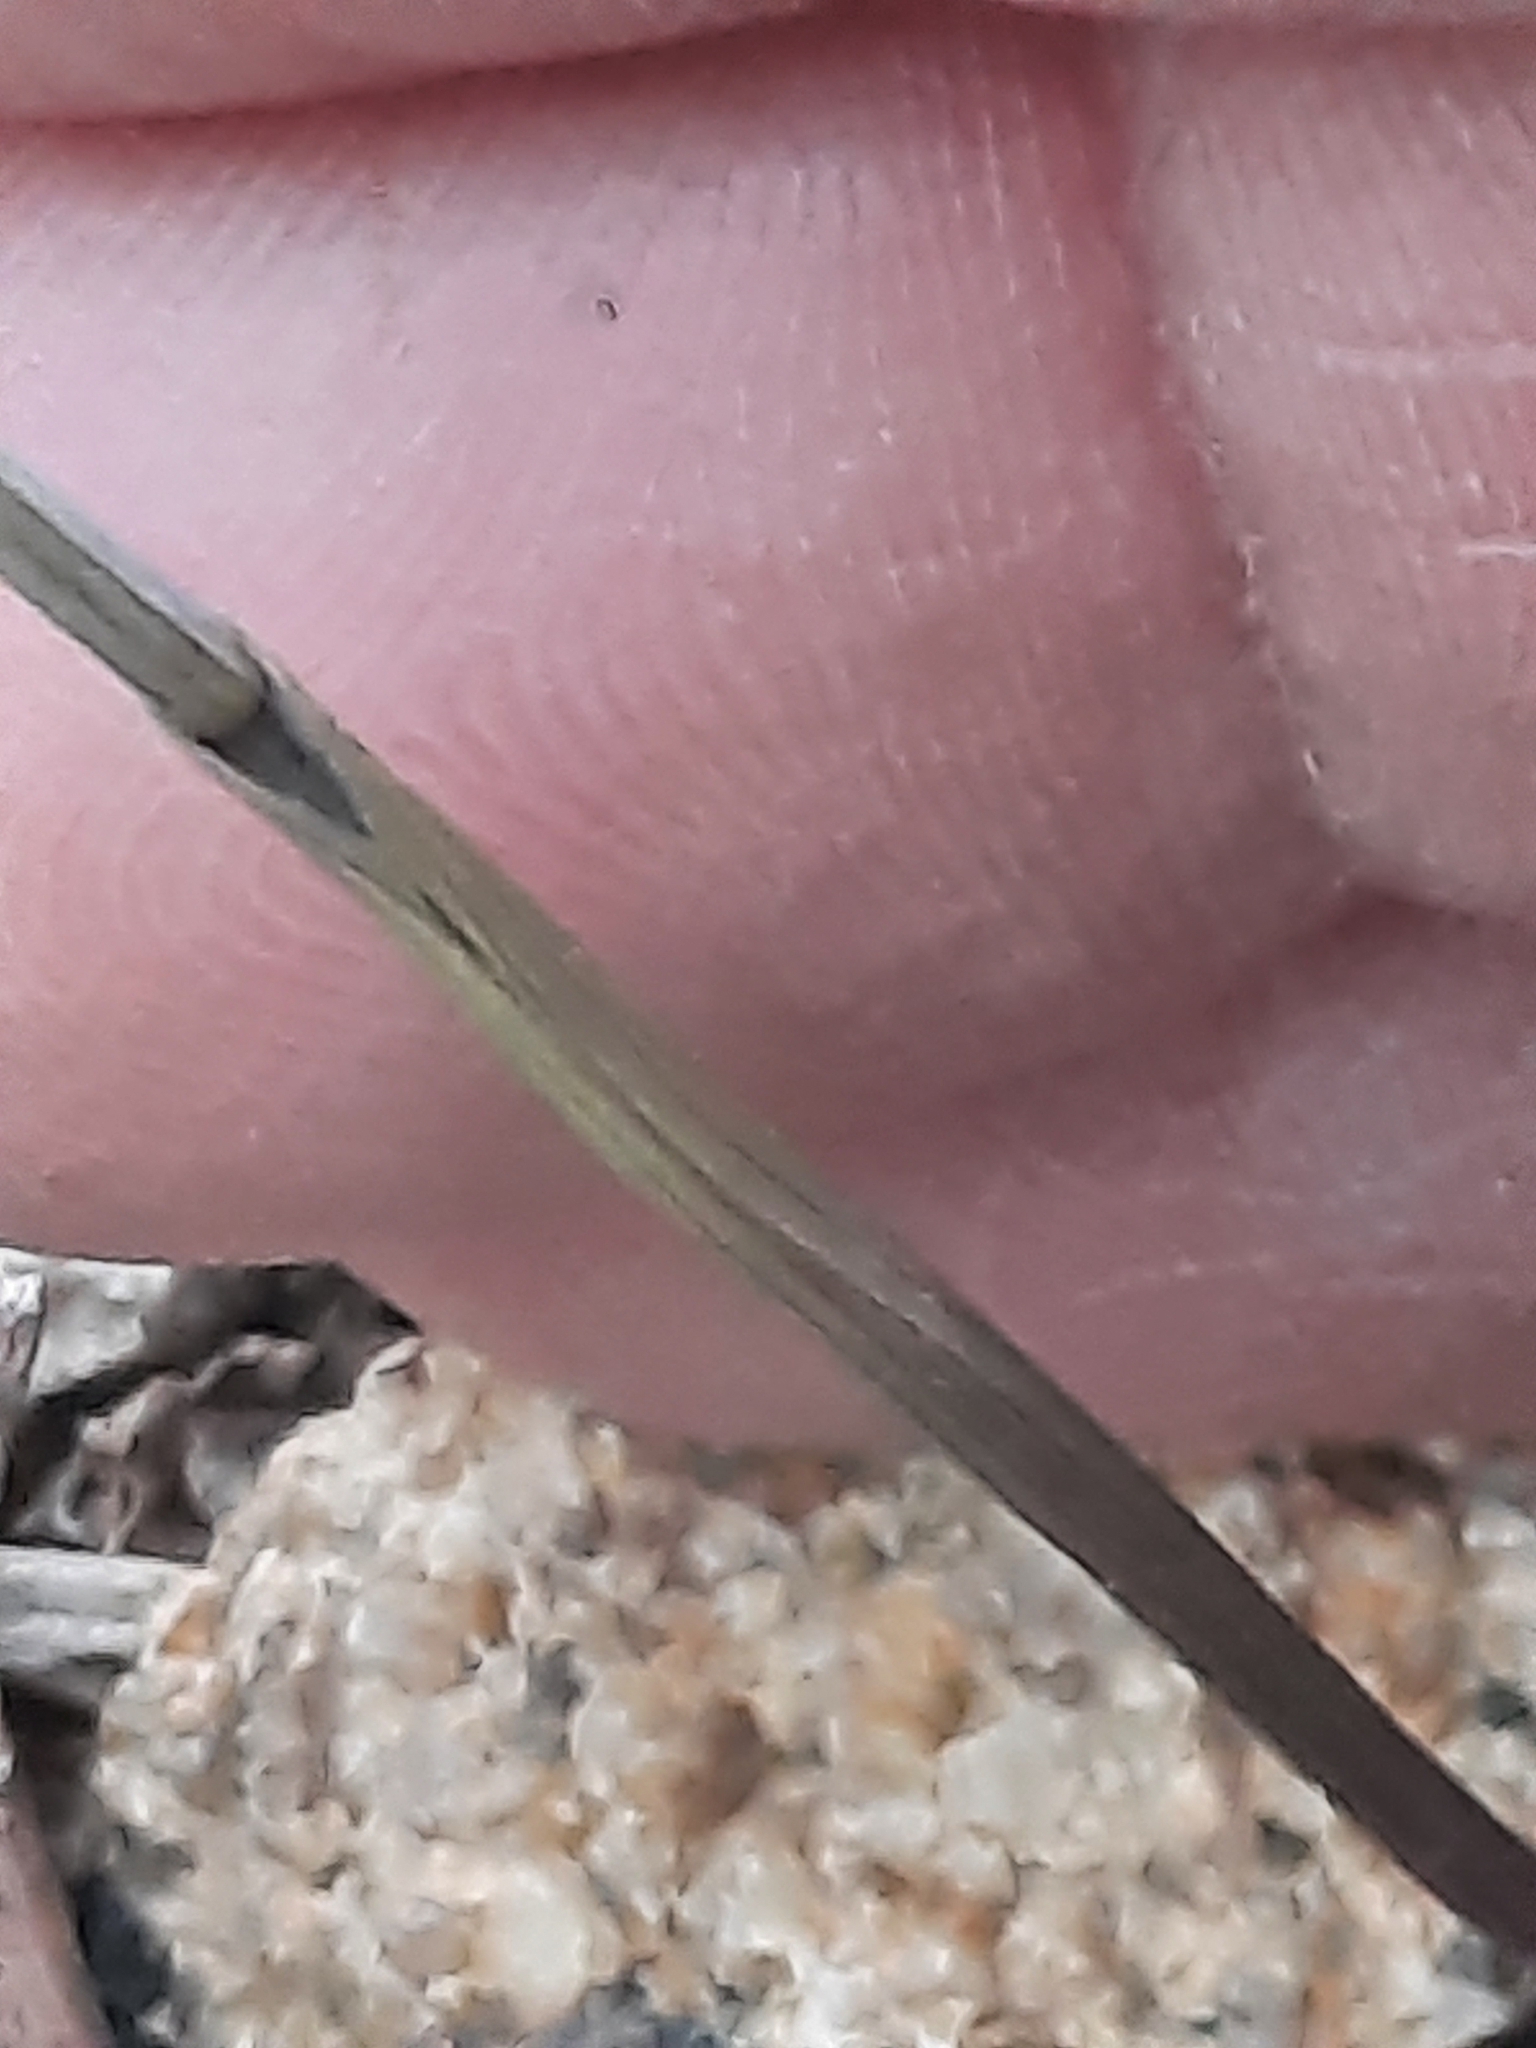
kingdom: Plantae
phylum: Tracheophyta
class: Liliopsida
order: Liliales
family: Colchicaceae
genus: Uvularia
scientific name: Uvularia sessilifolia
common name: Straw-lily
